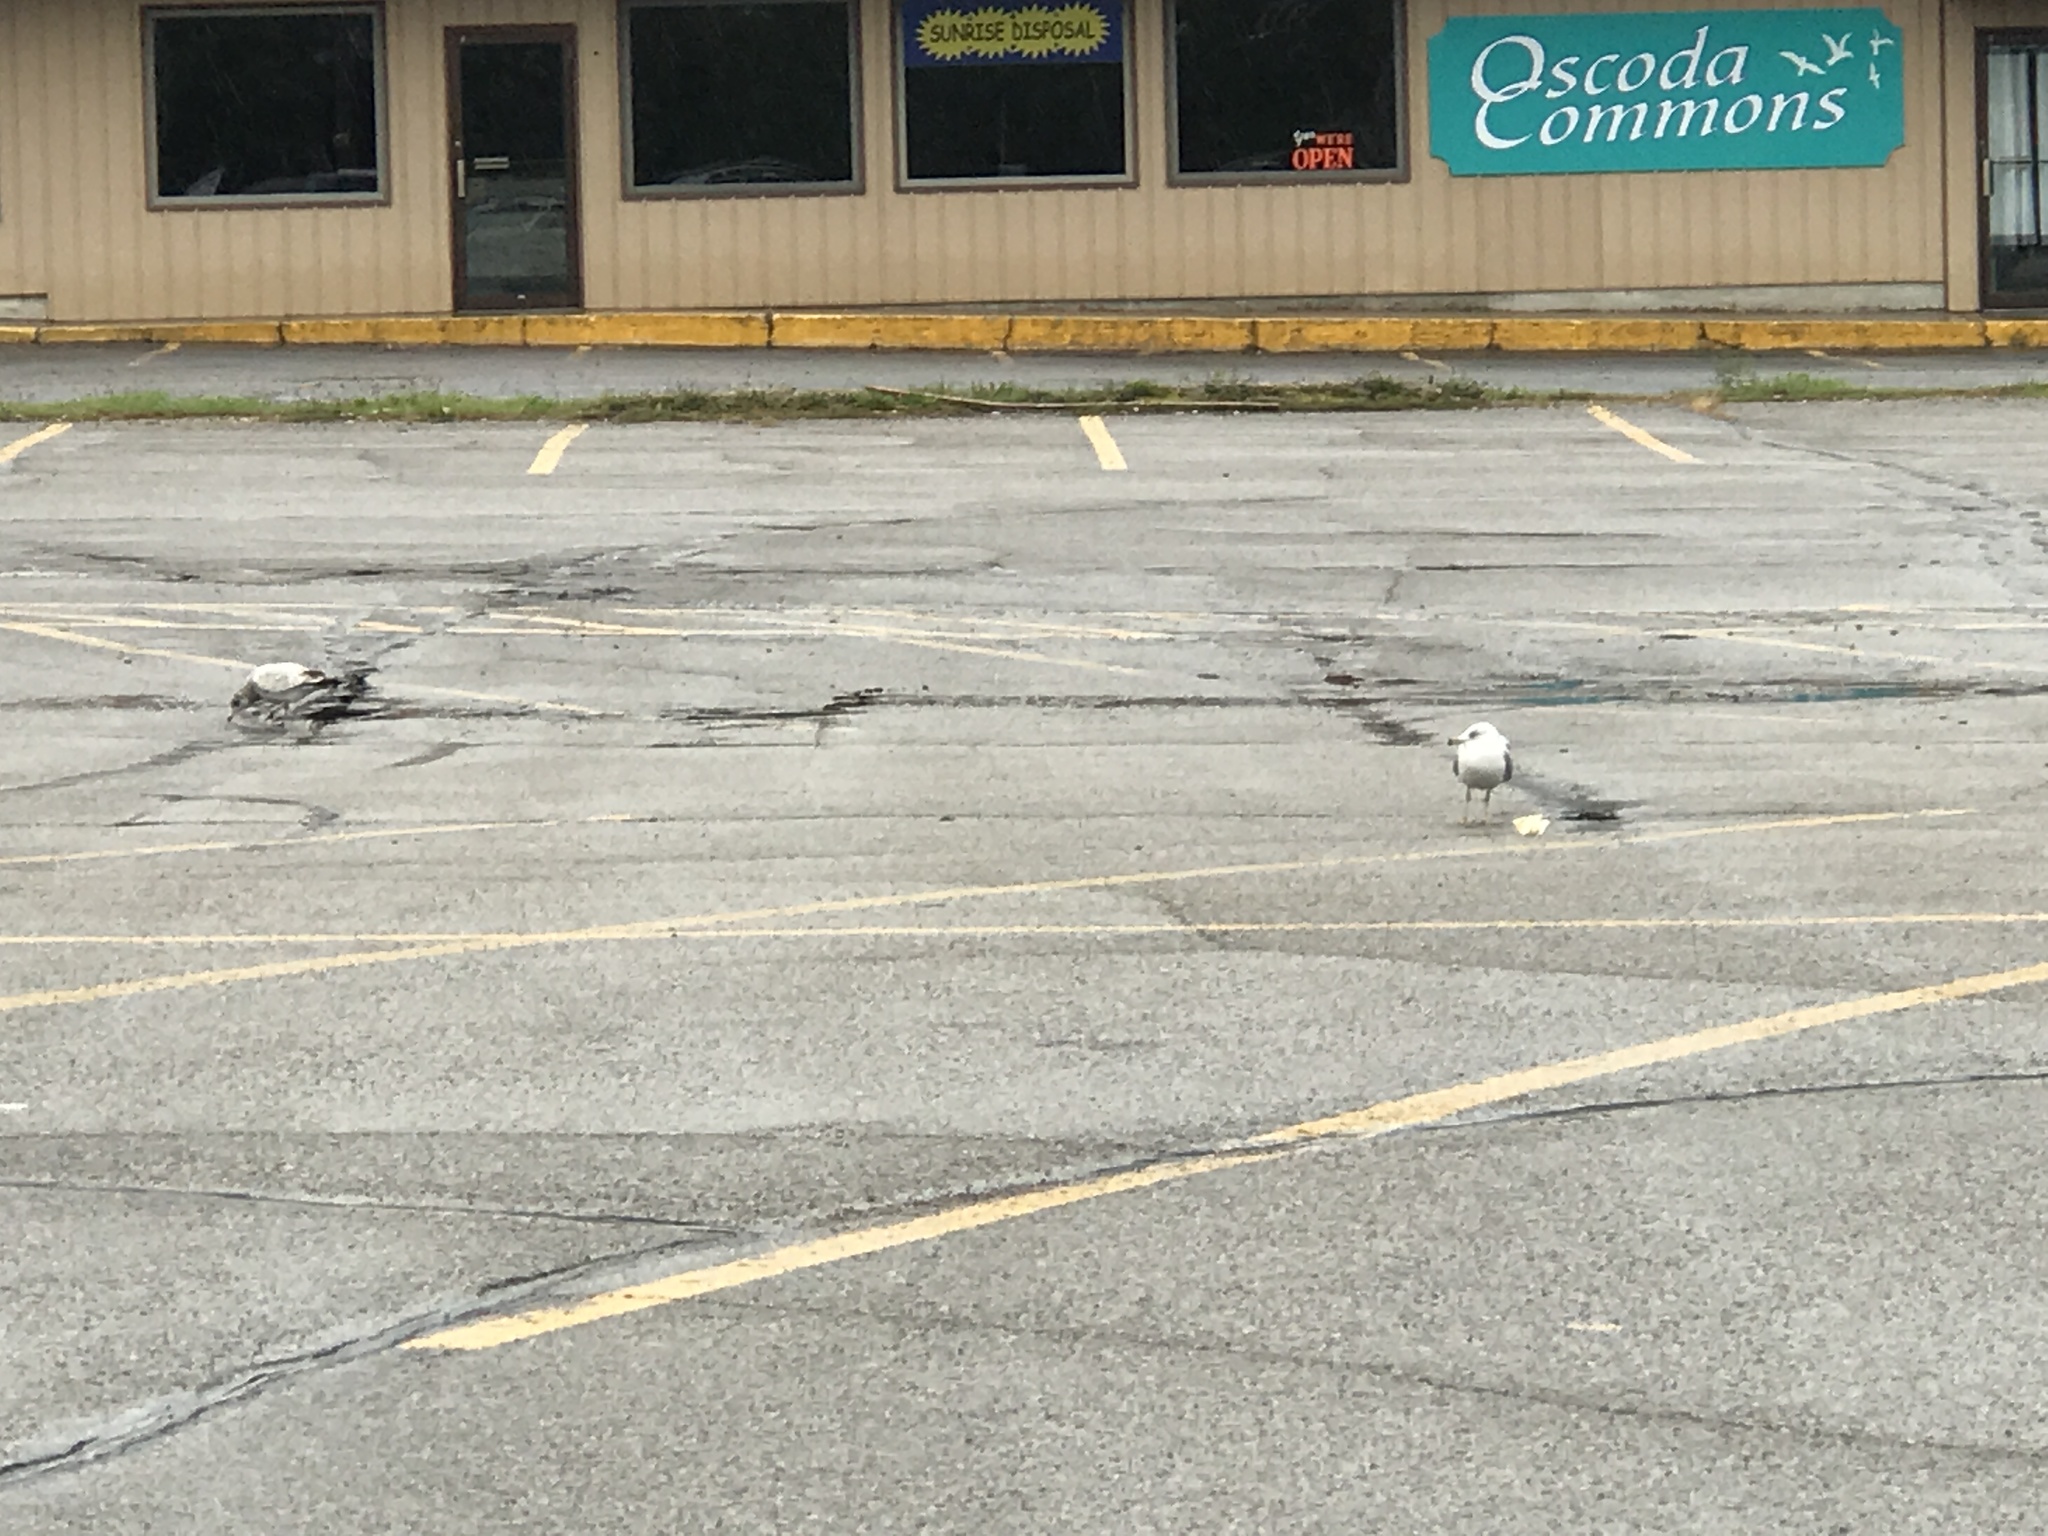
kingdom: Animalia
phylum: Chordata
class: Aves
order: Charadriiformes
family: Laridae
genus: Larus
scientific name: Larus delawarensis
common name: Ring-billed gull
